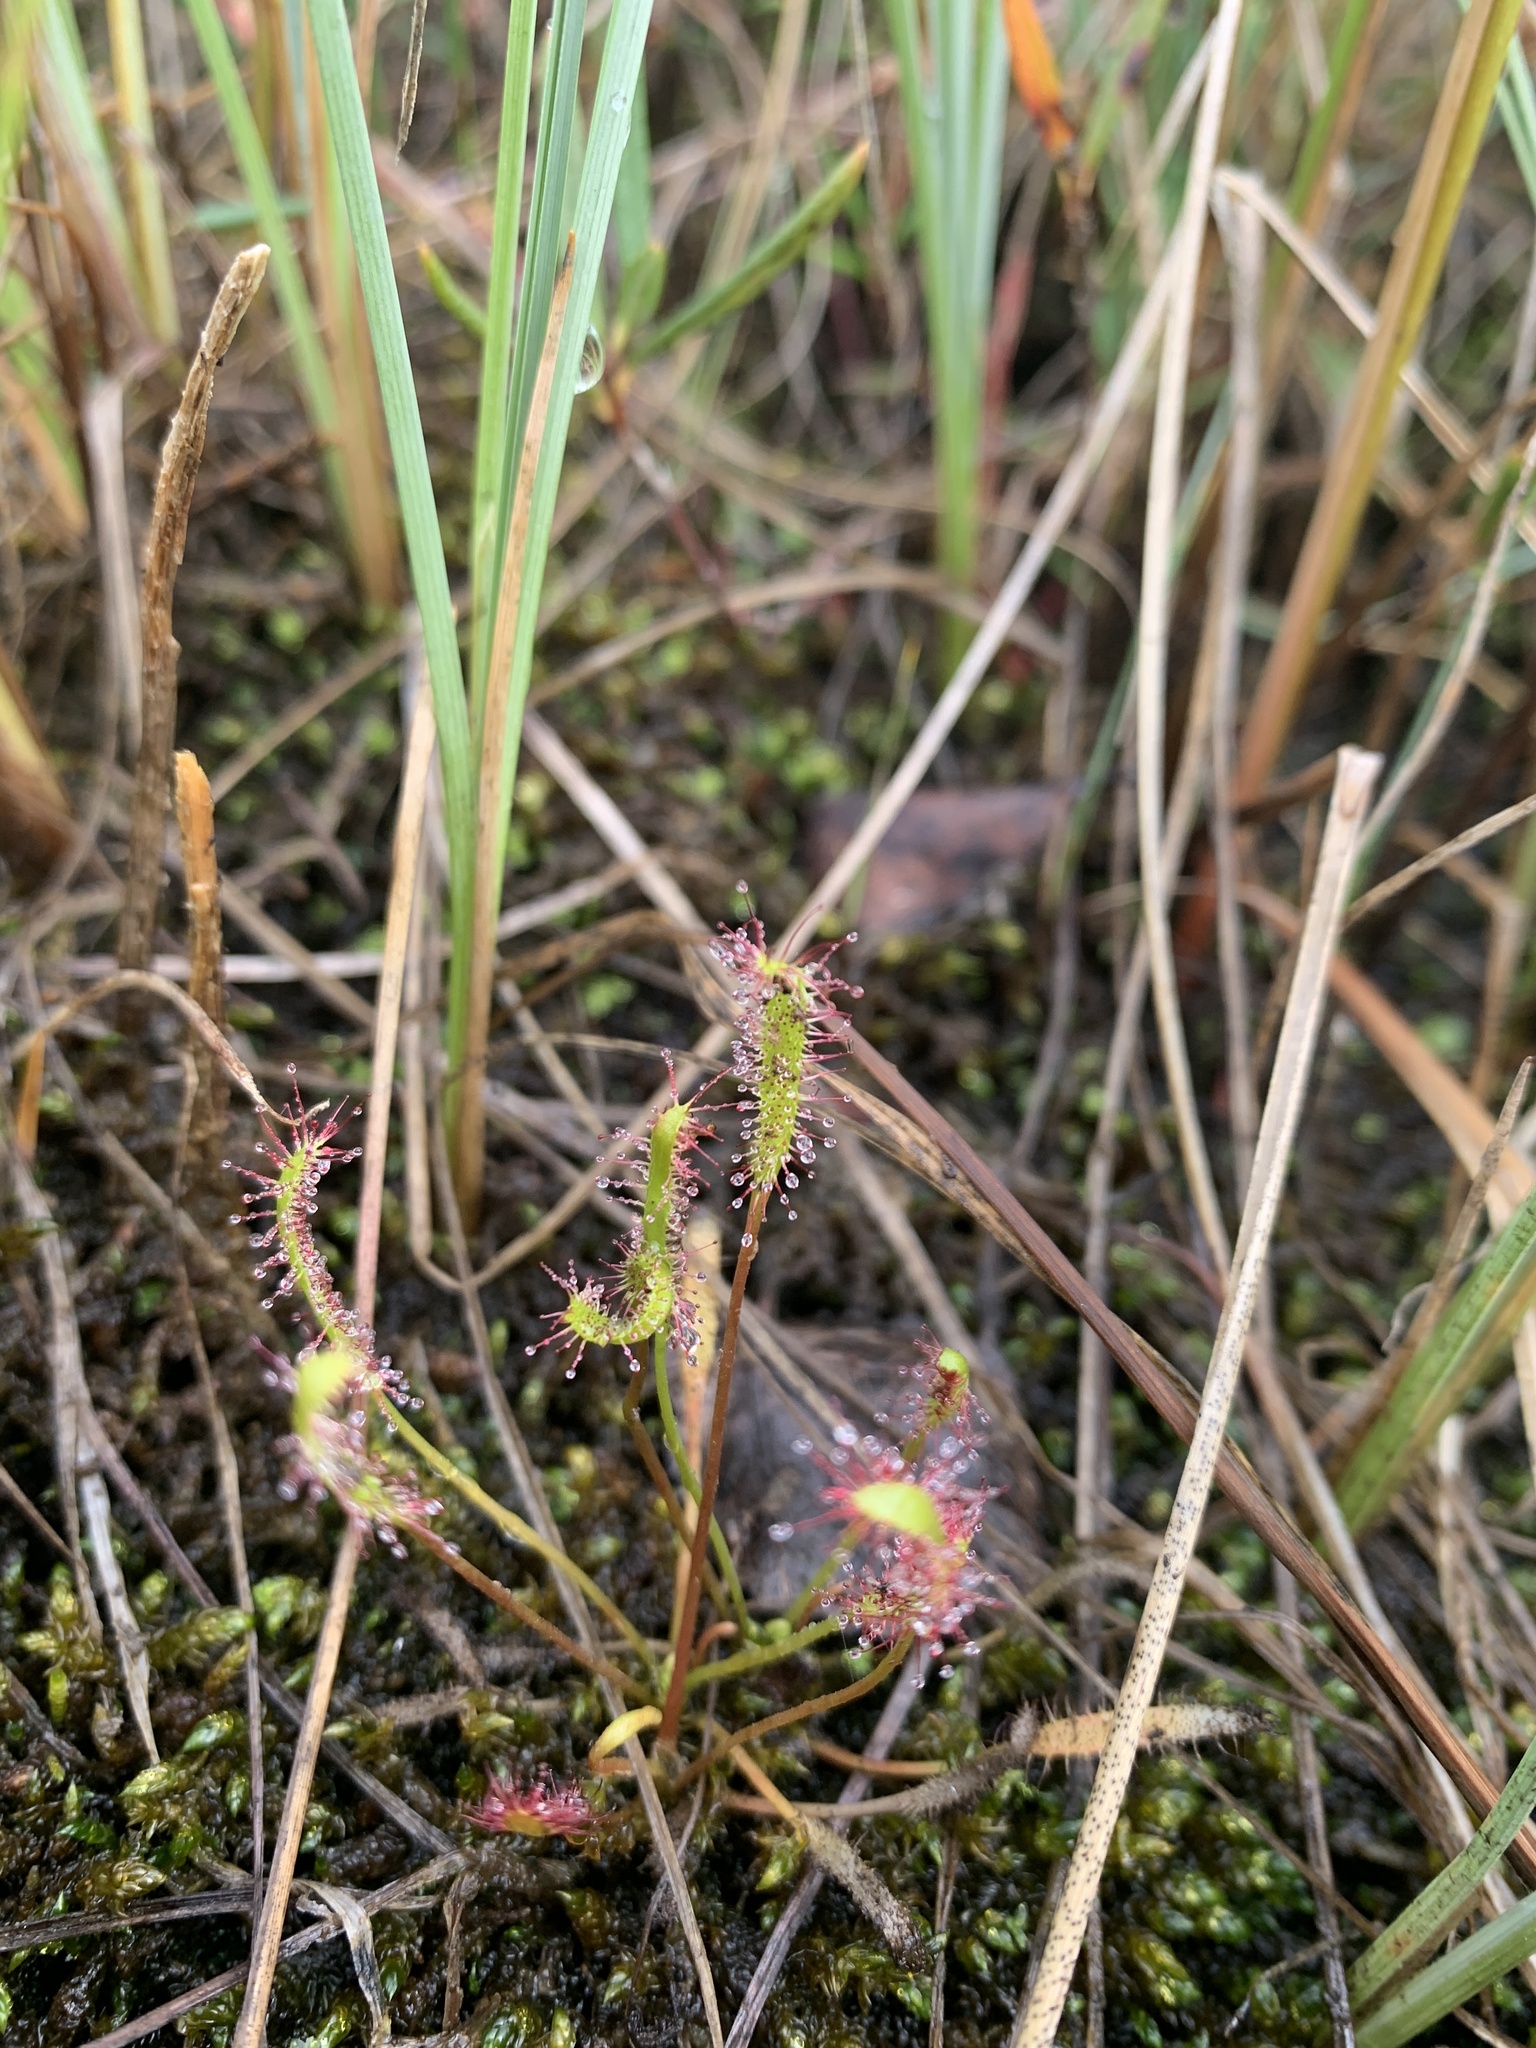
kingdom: Plantae
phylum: Tracheophyta
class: Magnoliopsida
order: Caryophyllales
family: Droseraceae
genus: Drosera
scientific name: Drosera linearis
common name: Linear-leaved sundew
